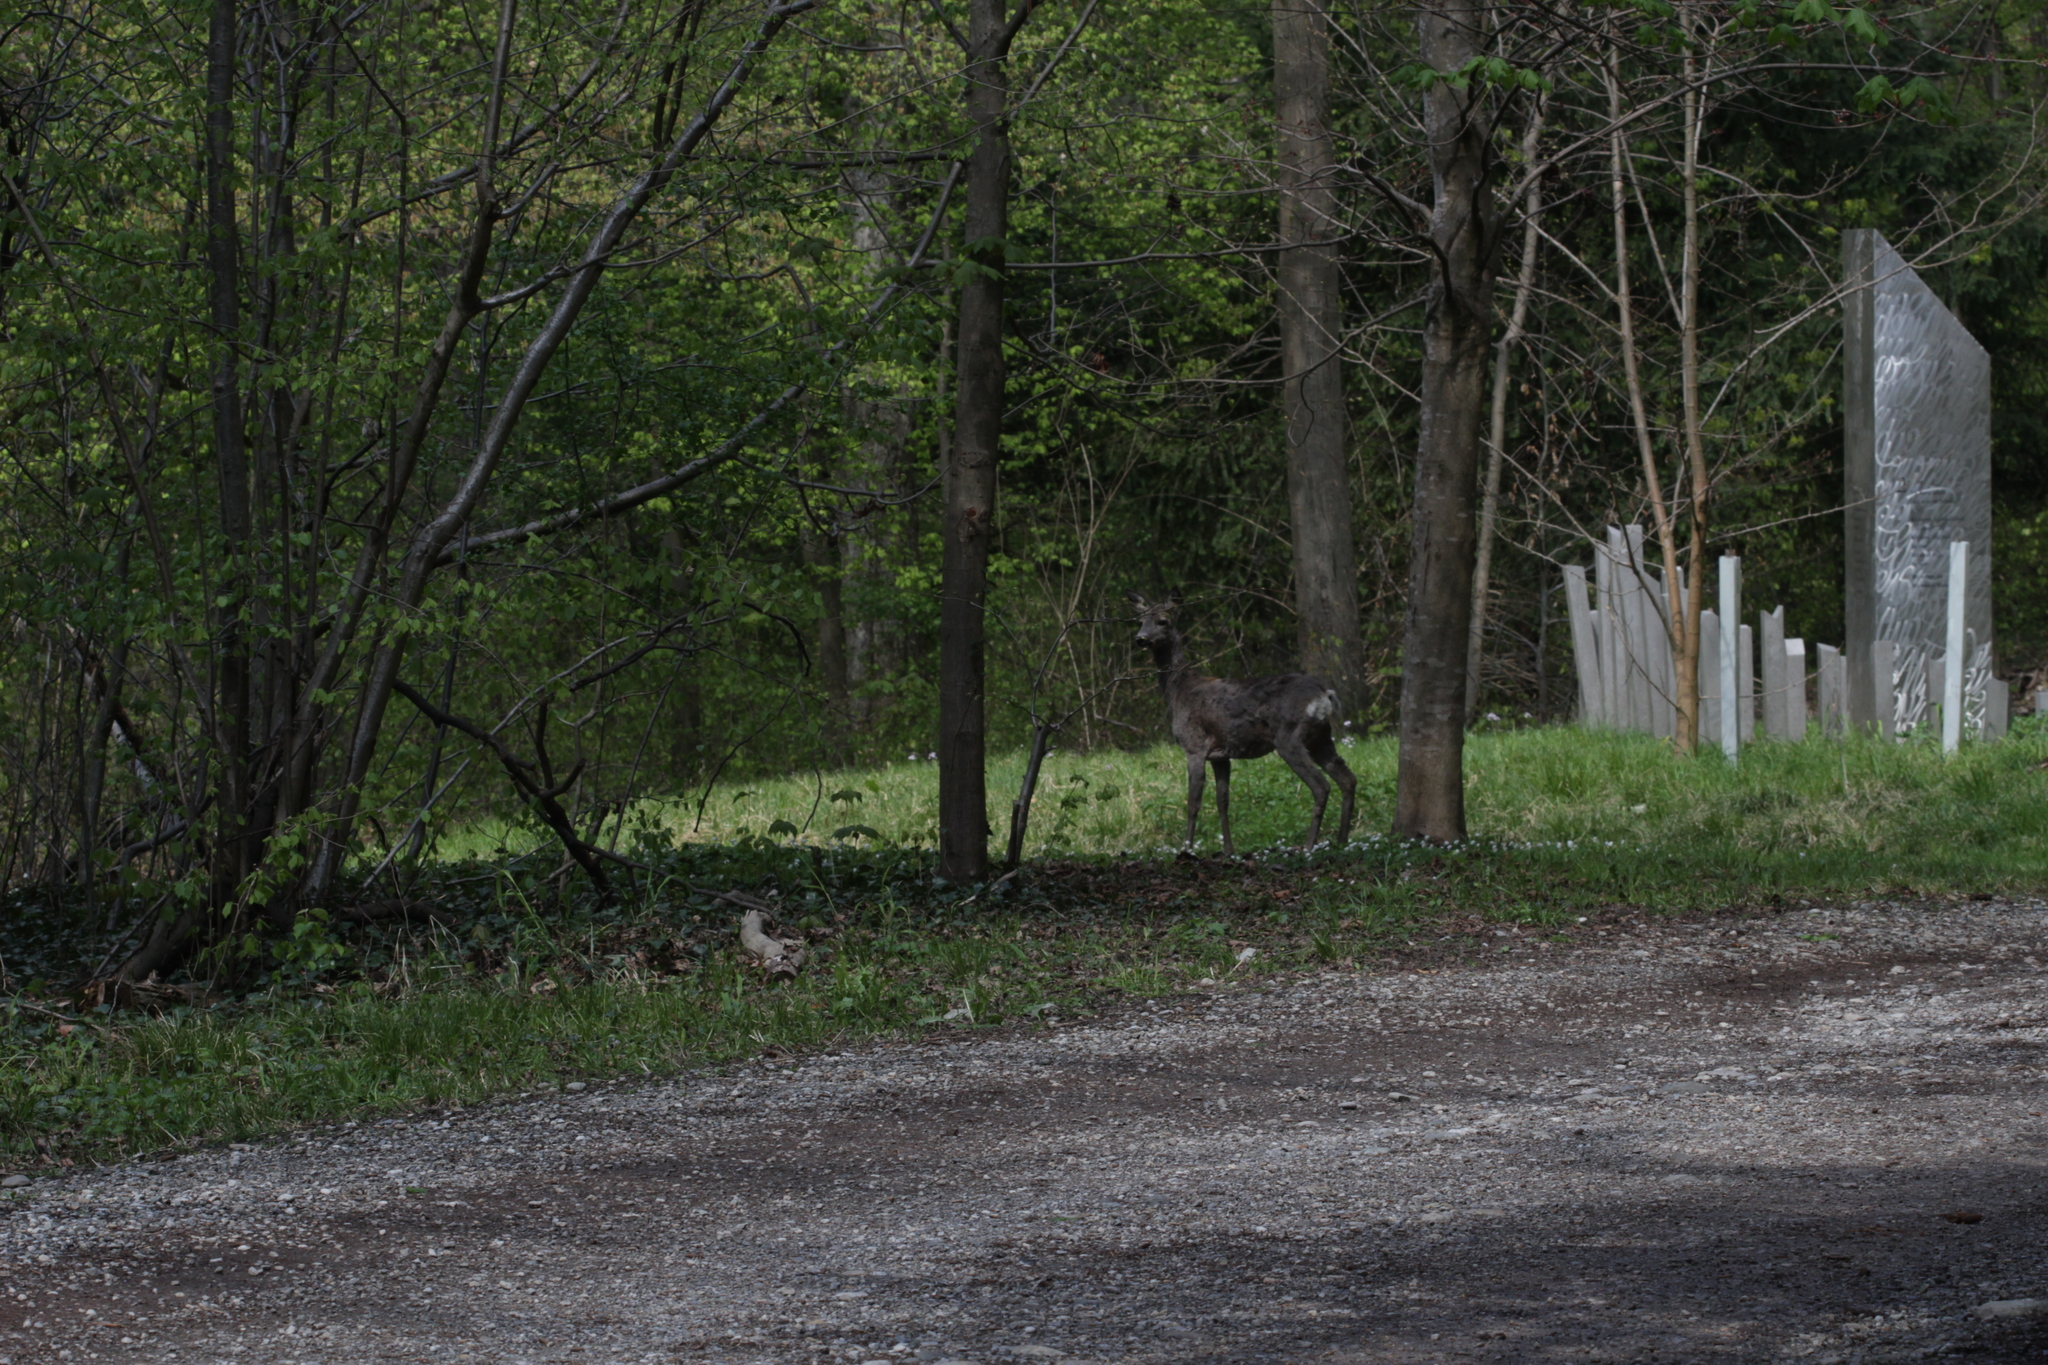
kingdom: Animalia
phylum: Chordata
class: Mammalia
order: Artiodactyla
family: Cervidae
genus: Capreolus
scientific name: Capreolus capreolus
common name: Western roe deer
